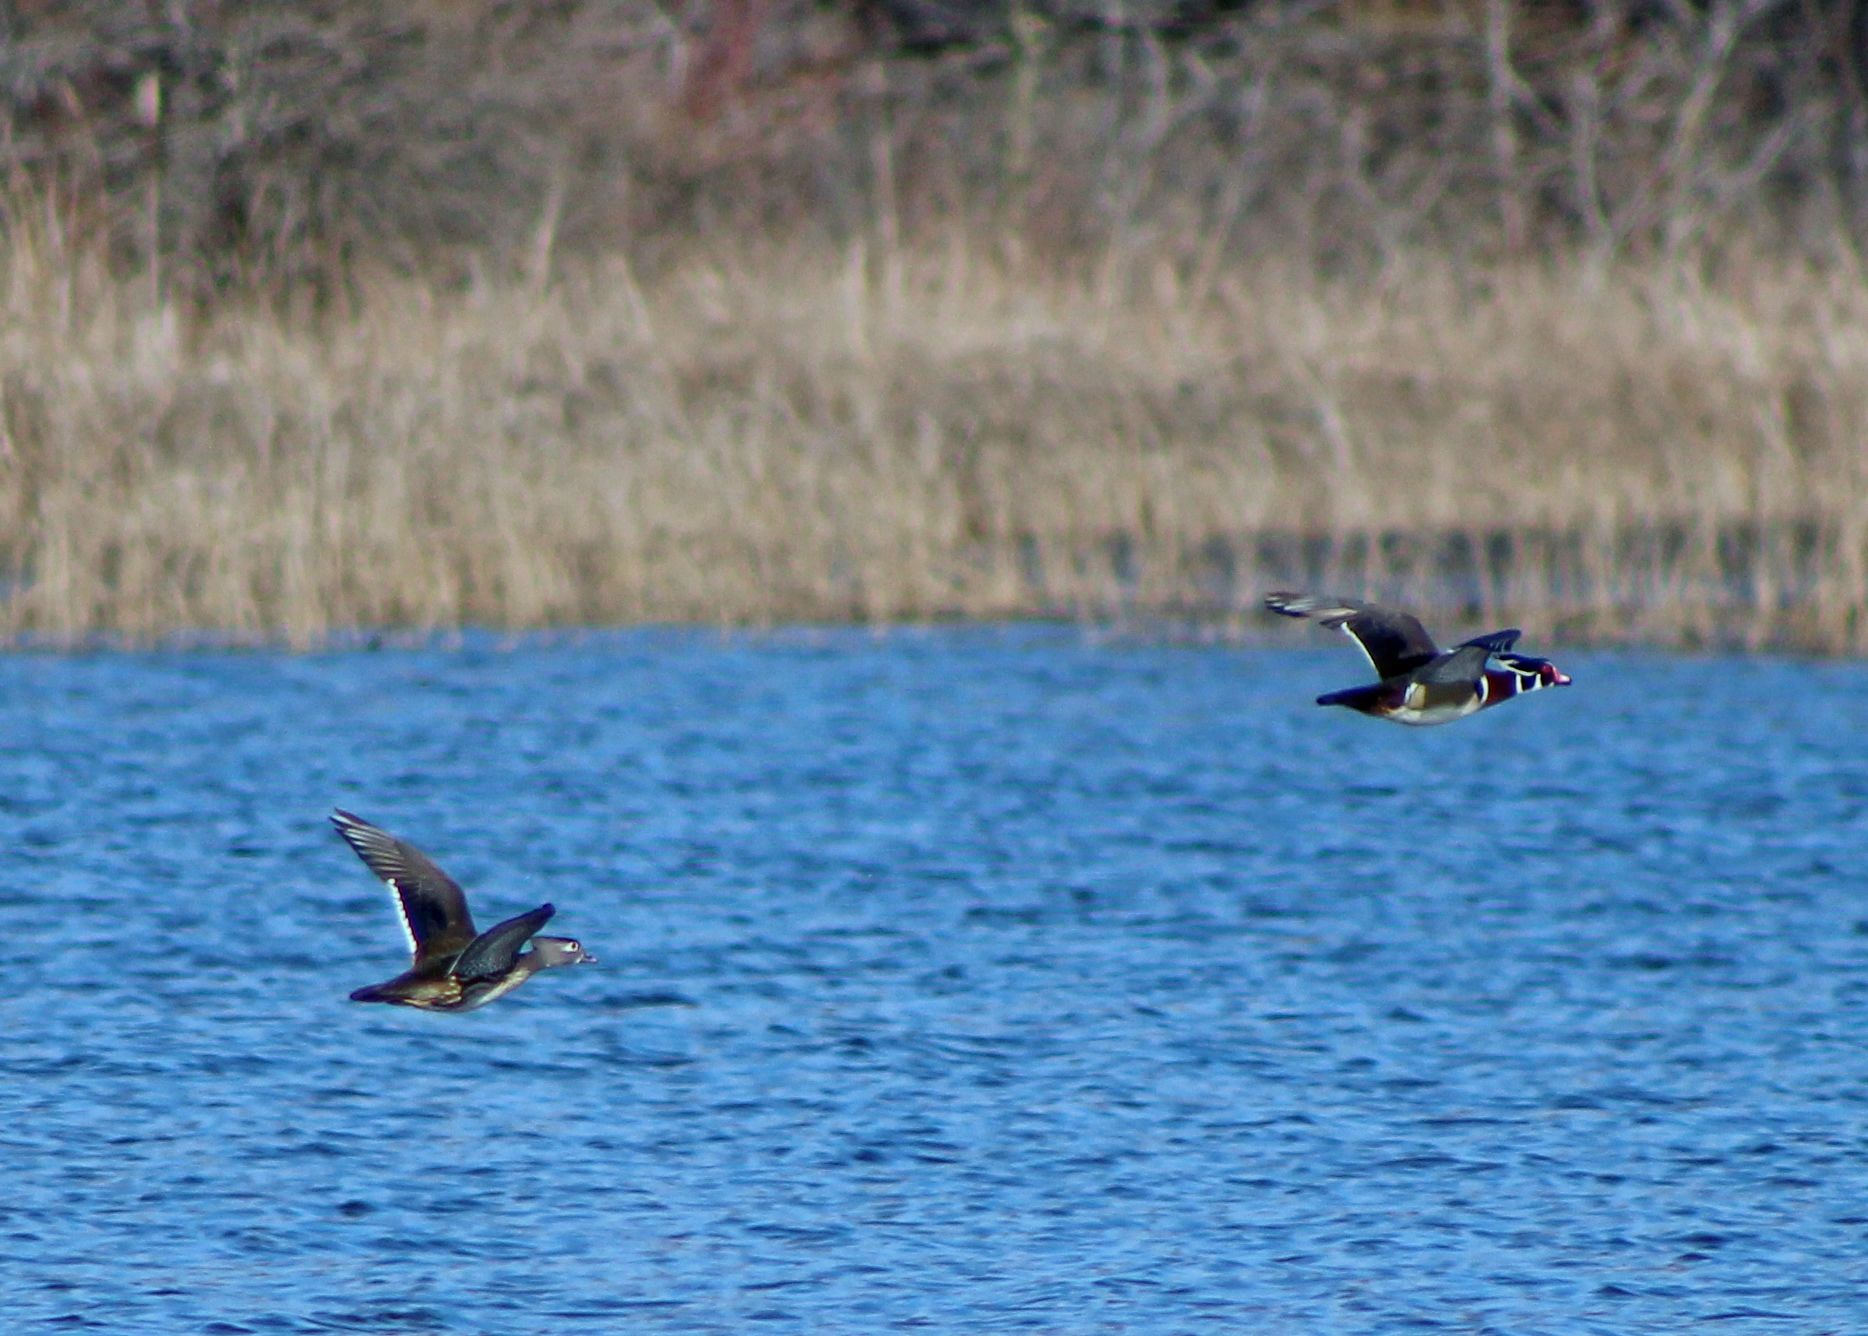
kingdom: Animalia
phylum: Chordata
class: Aves
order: Anseriformes
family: Anatidae
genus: Aix
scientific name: Aix sponsa
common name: Wood duck
